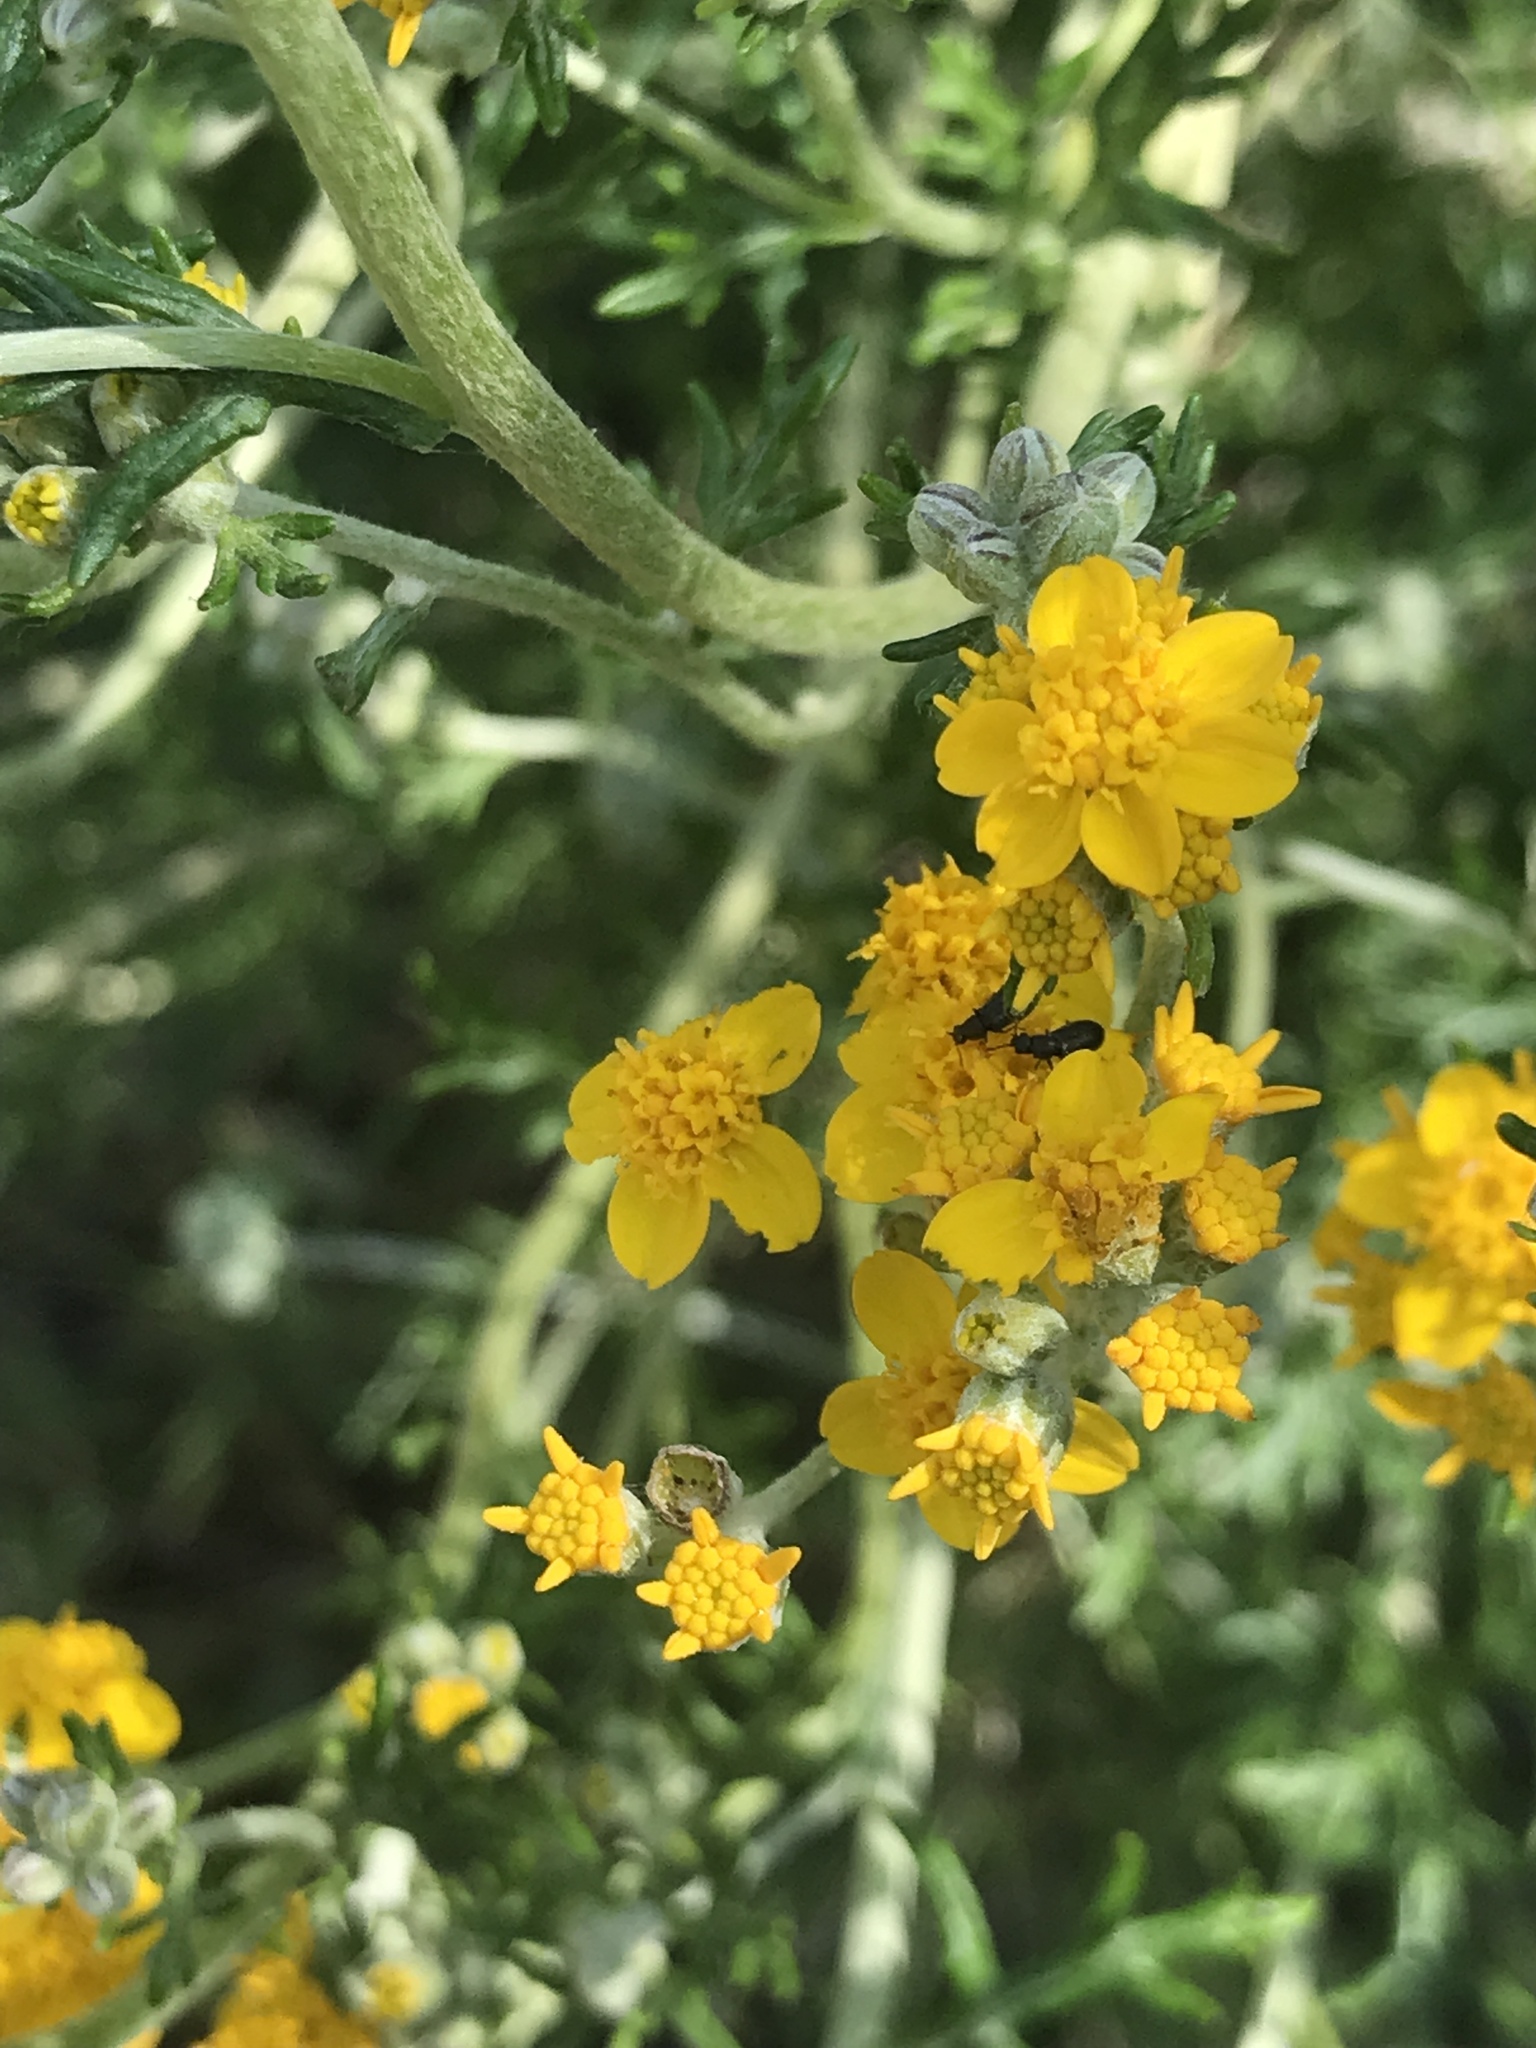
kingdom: Plantae
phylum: Tracheophyta
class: Magnoliopsida
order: Asterales
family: Asteraceae
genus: Eriophyllum
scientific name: Eriophyllum confertiflorum
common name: Golden-yarrow
